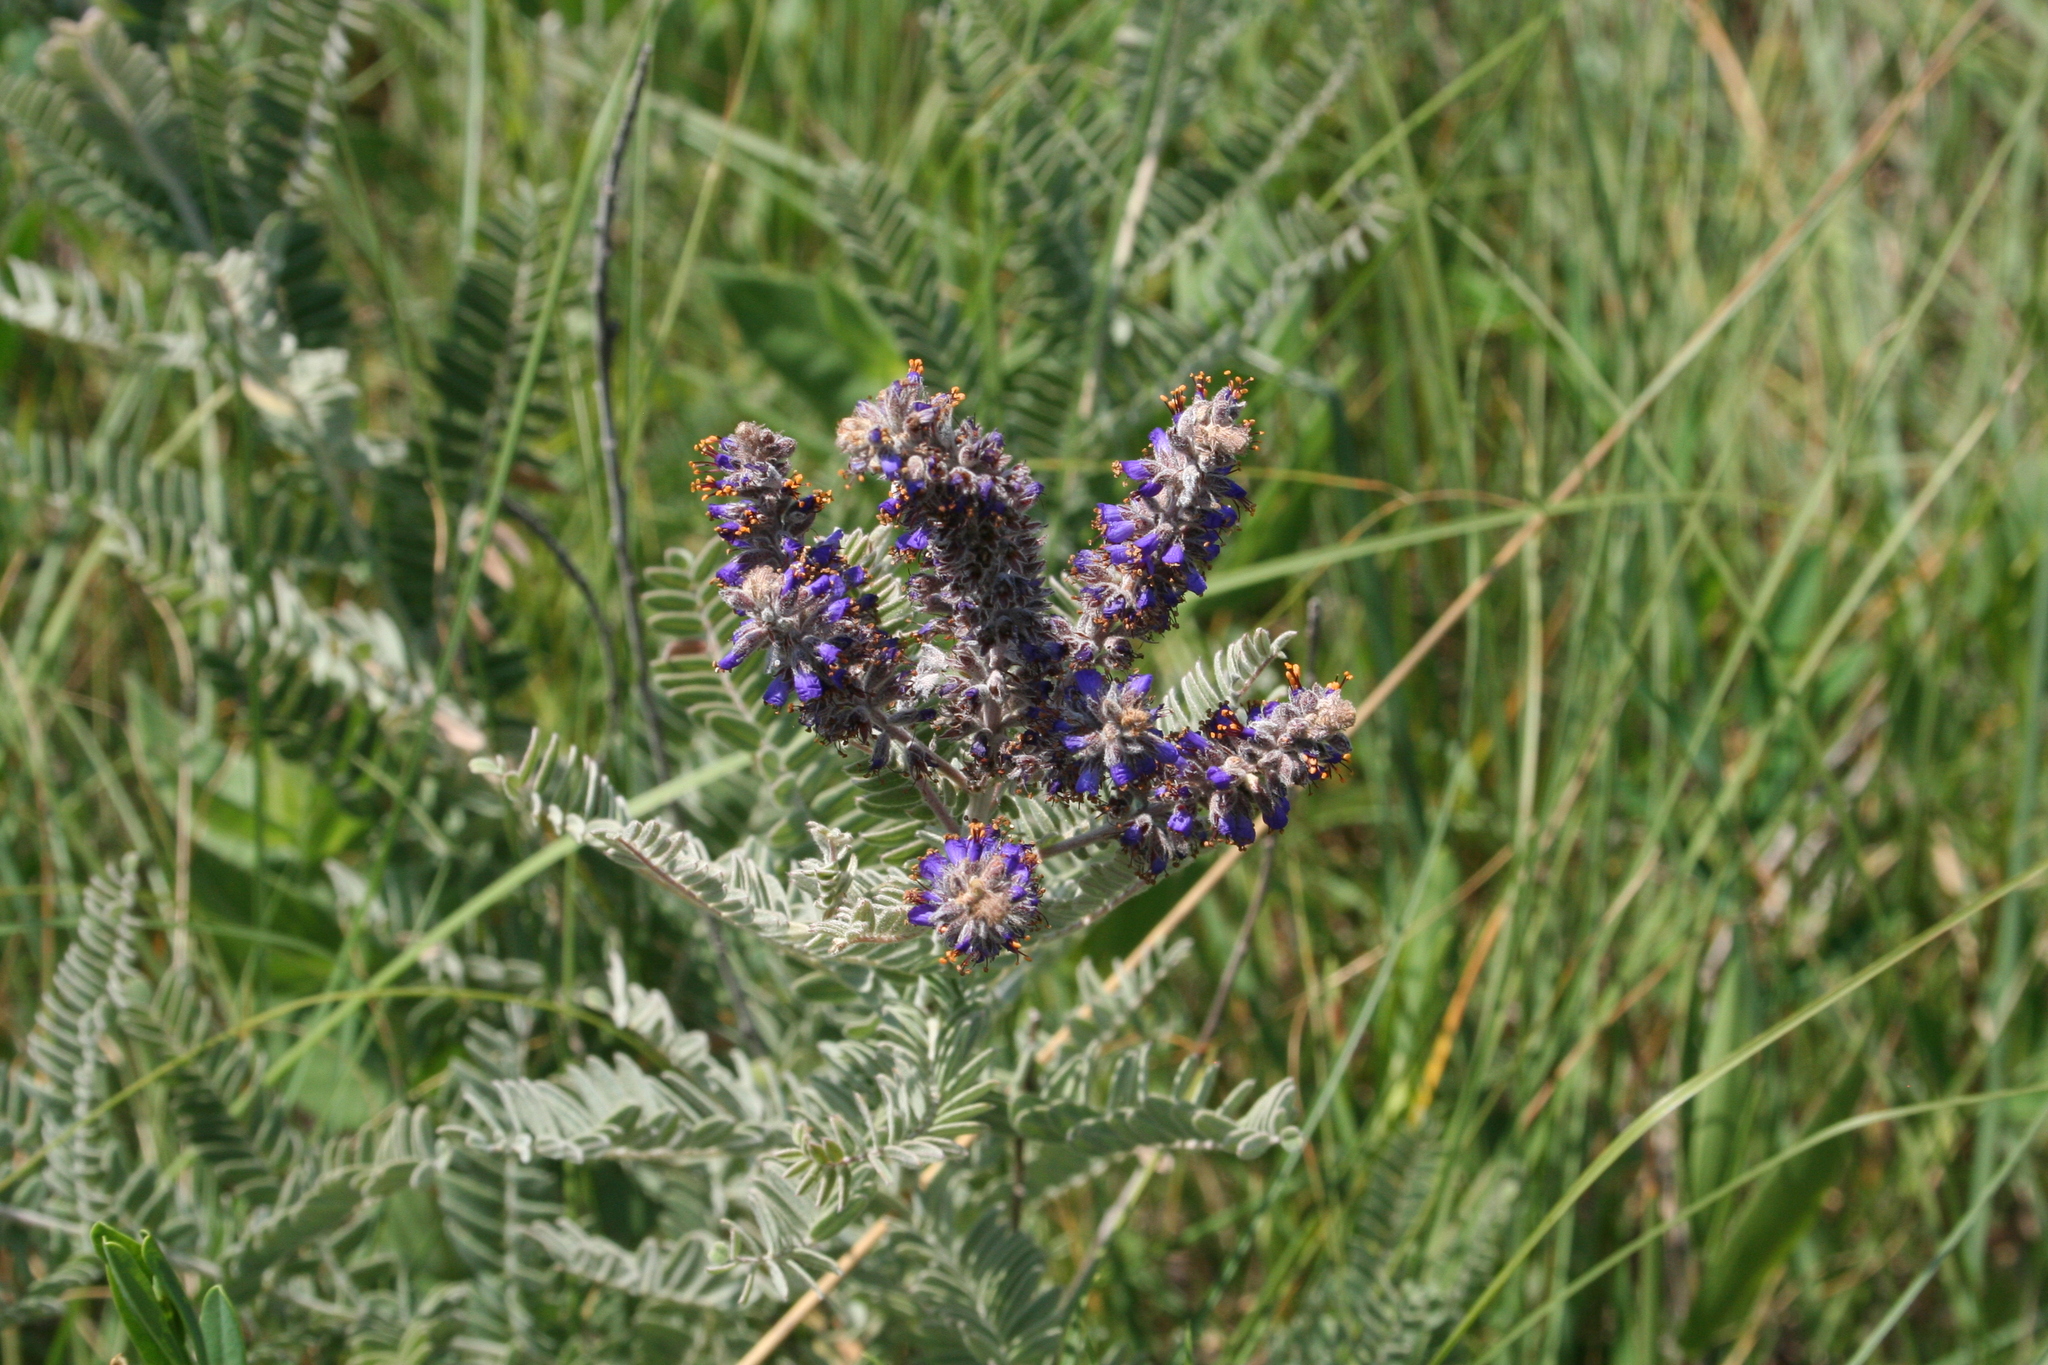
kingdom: Plantae
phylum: Tracheophyta
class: Magnoliopsida
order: Fabales
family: Fabaceae
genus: Amorpha
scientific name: Amorpha canescens
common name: Leadplant
